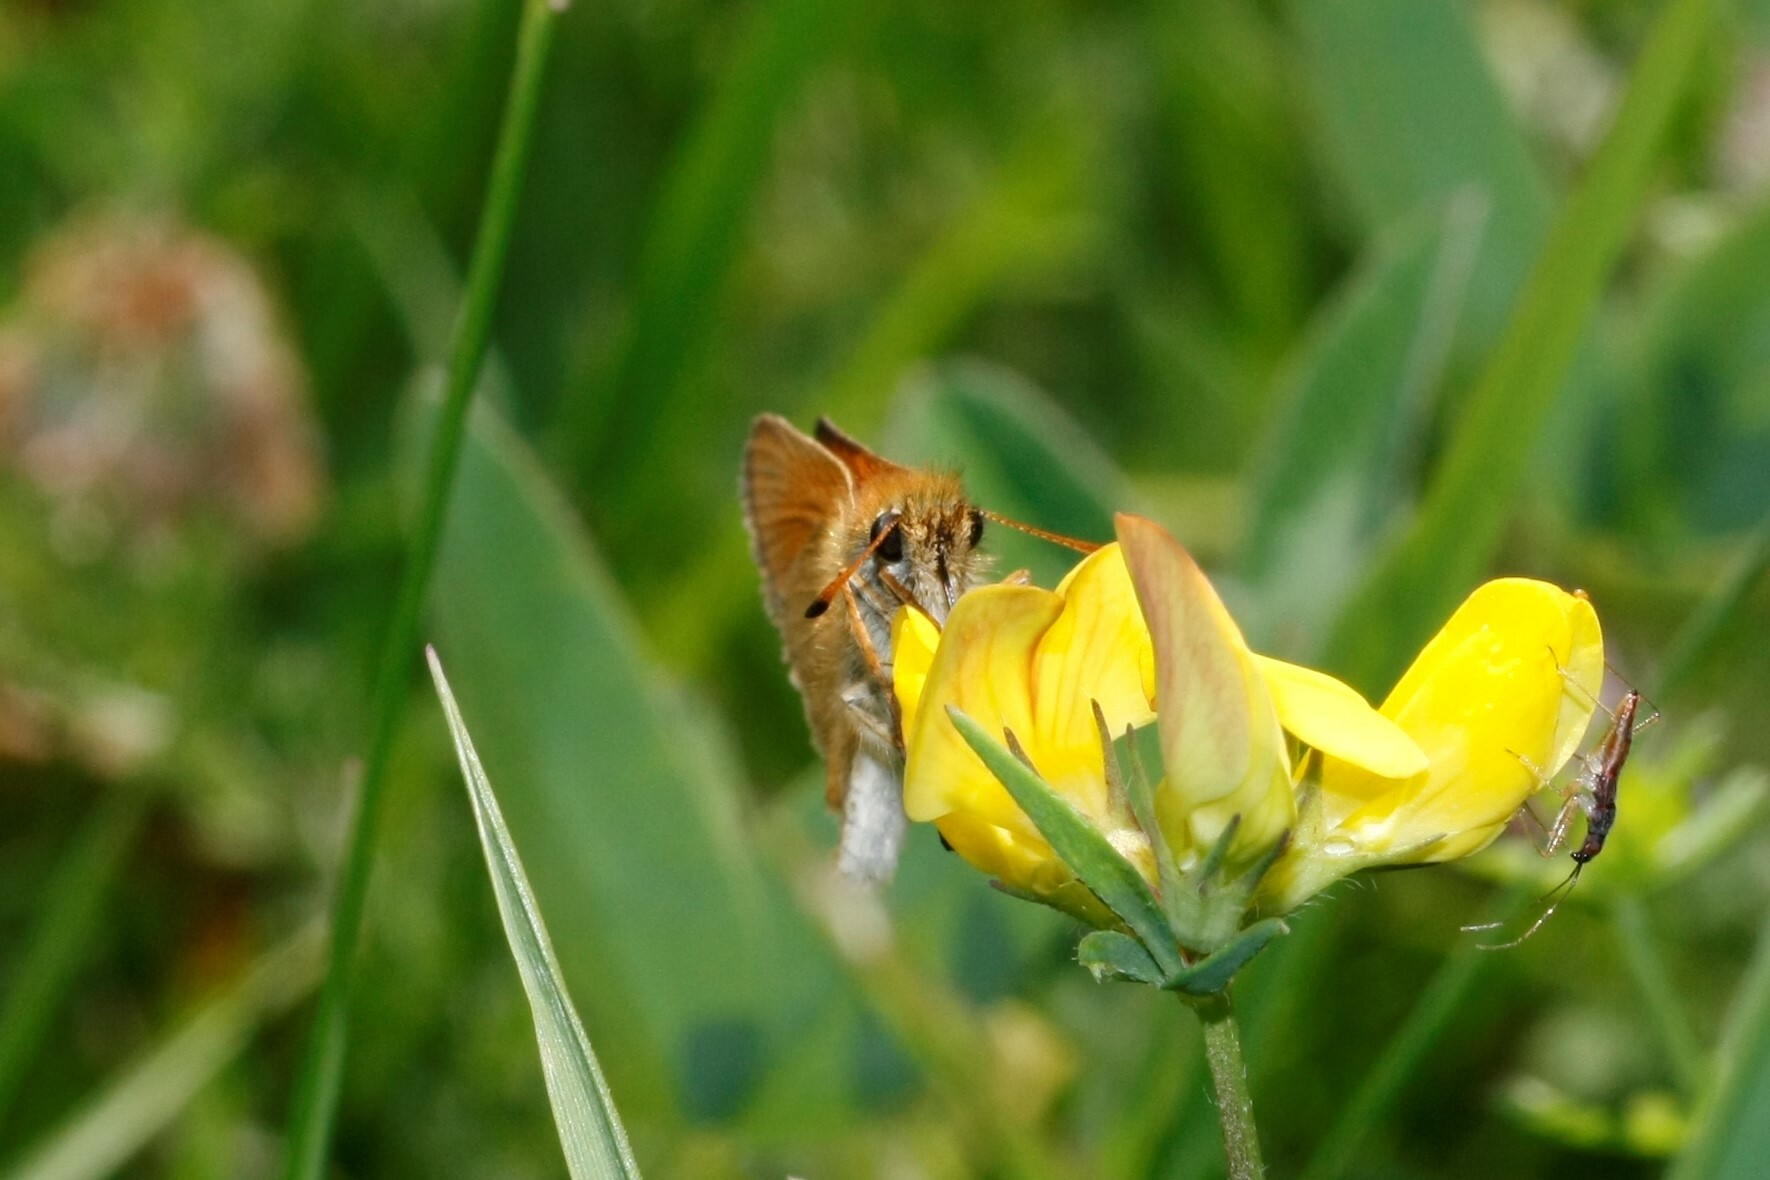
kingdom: Animalia
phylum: Arthropoda
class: Insecta
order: Lepidoptera
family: Hesperiidae
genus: Thymelicus
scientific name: Thymelicus lineola
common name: Essex skipper
